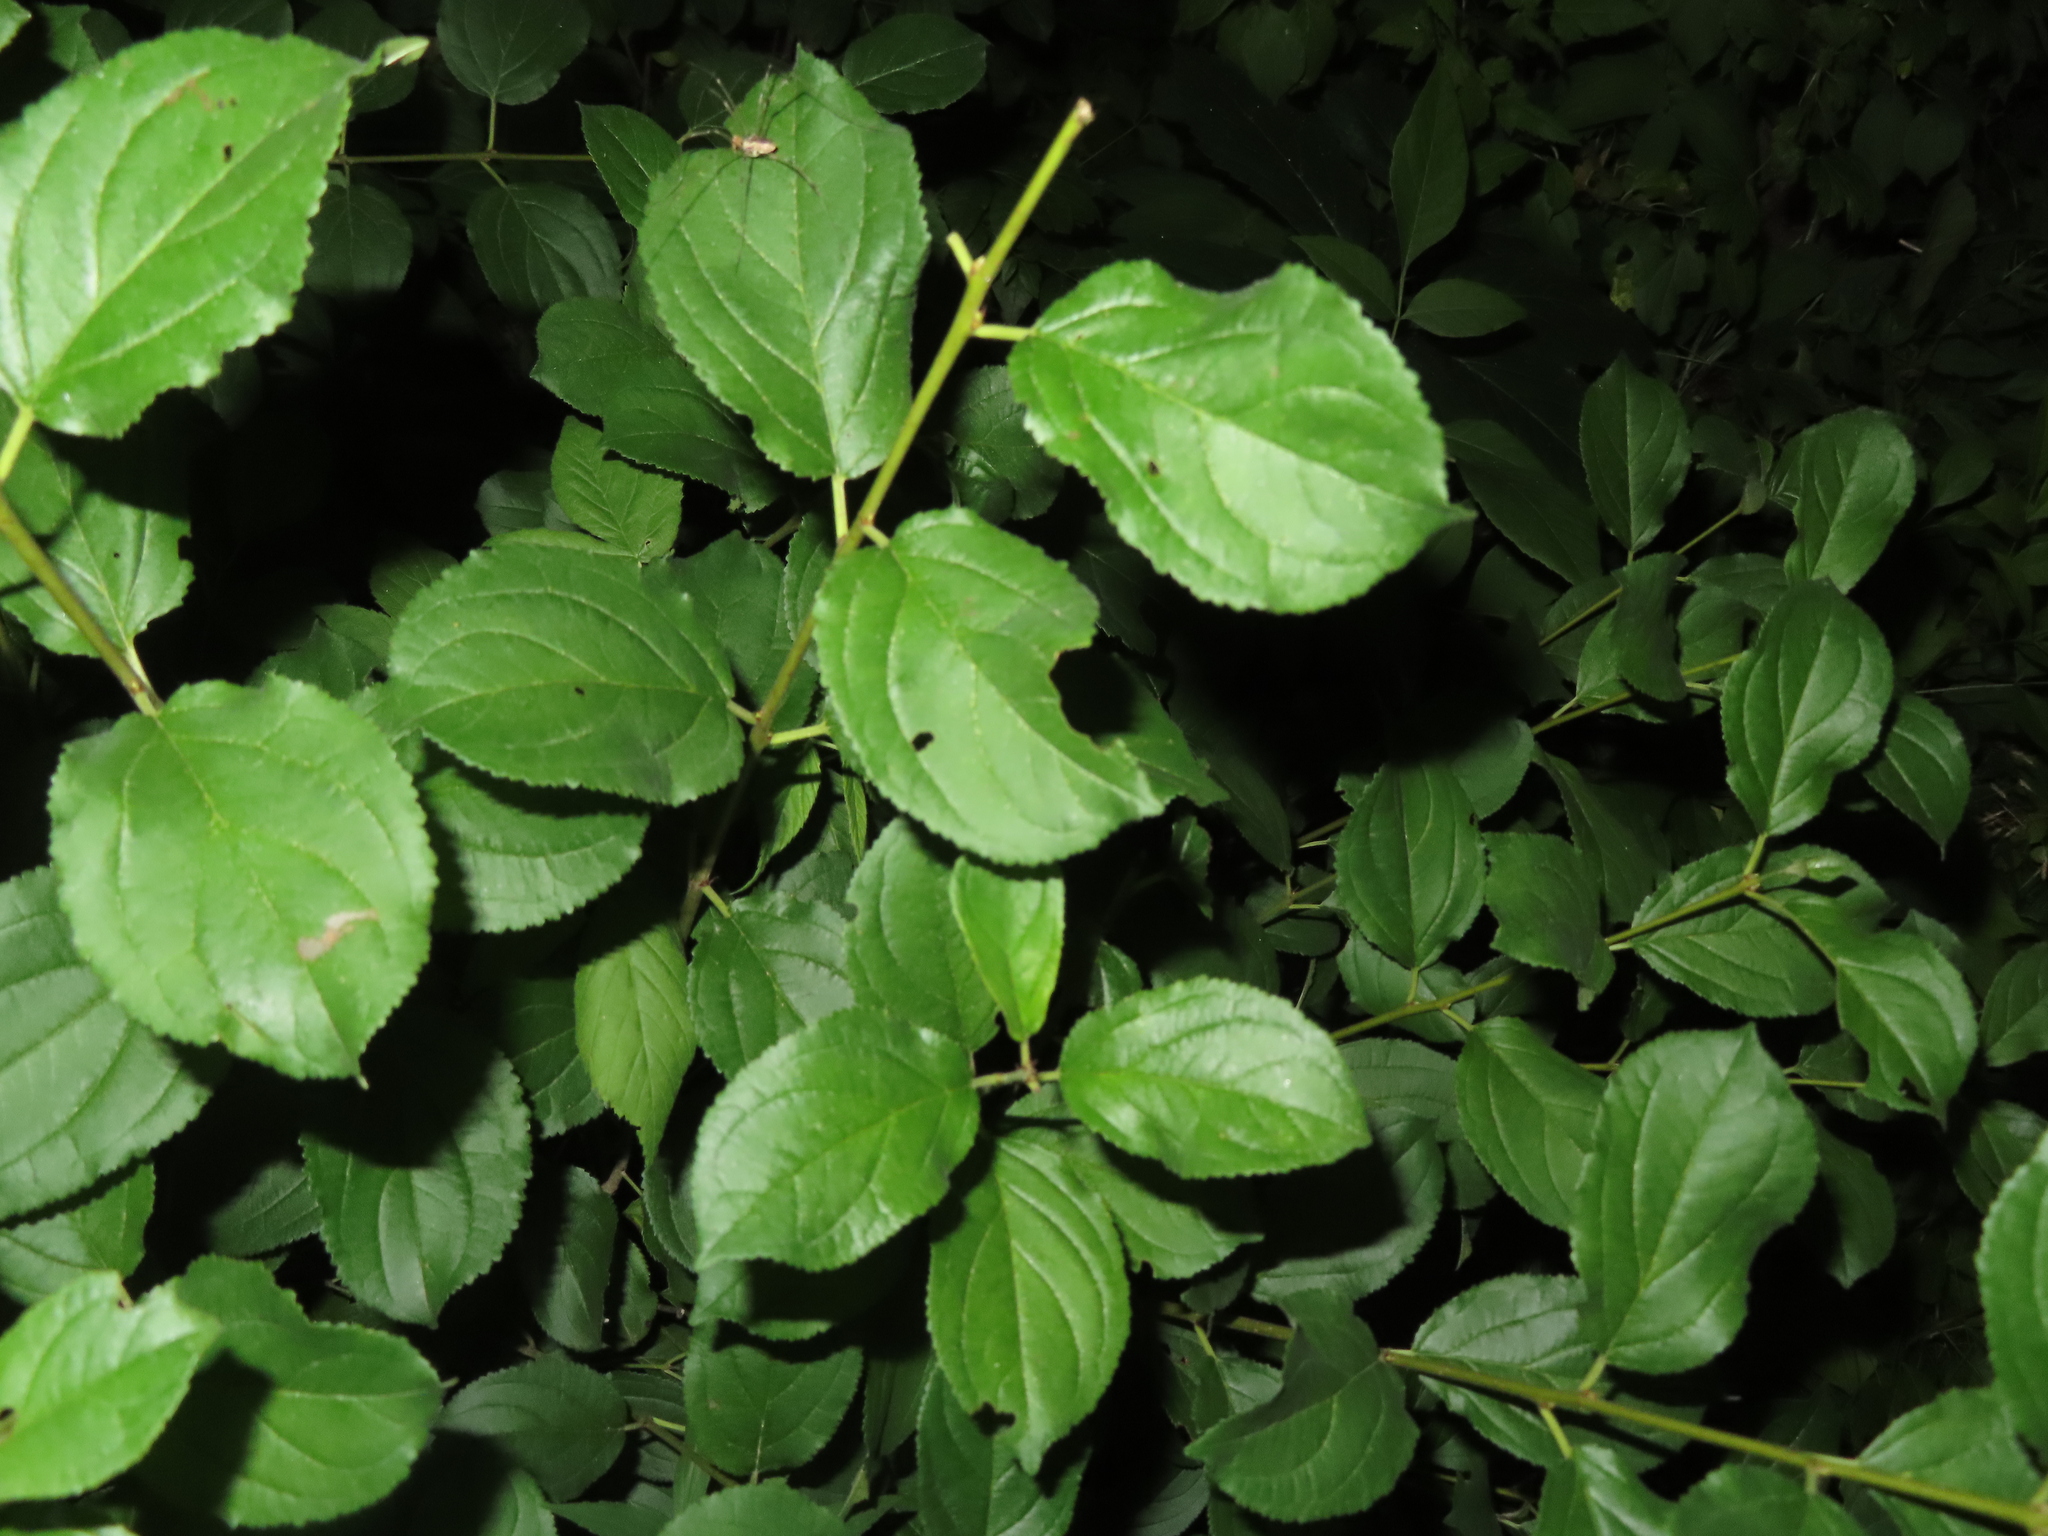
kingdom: Plantae
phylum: Tracheophyta
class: Magnoliopsida
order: Rosales
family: Rhamnaceae
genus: Rhamnus
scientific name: Rhamnus cathartica
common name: Common buckthorn
